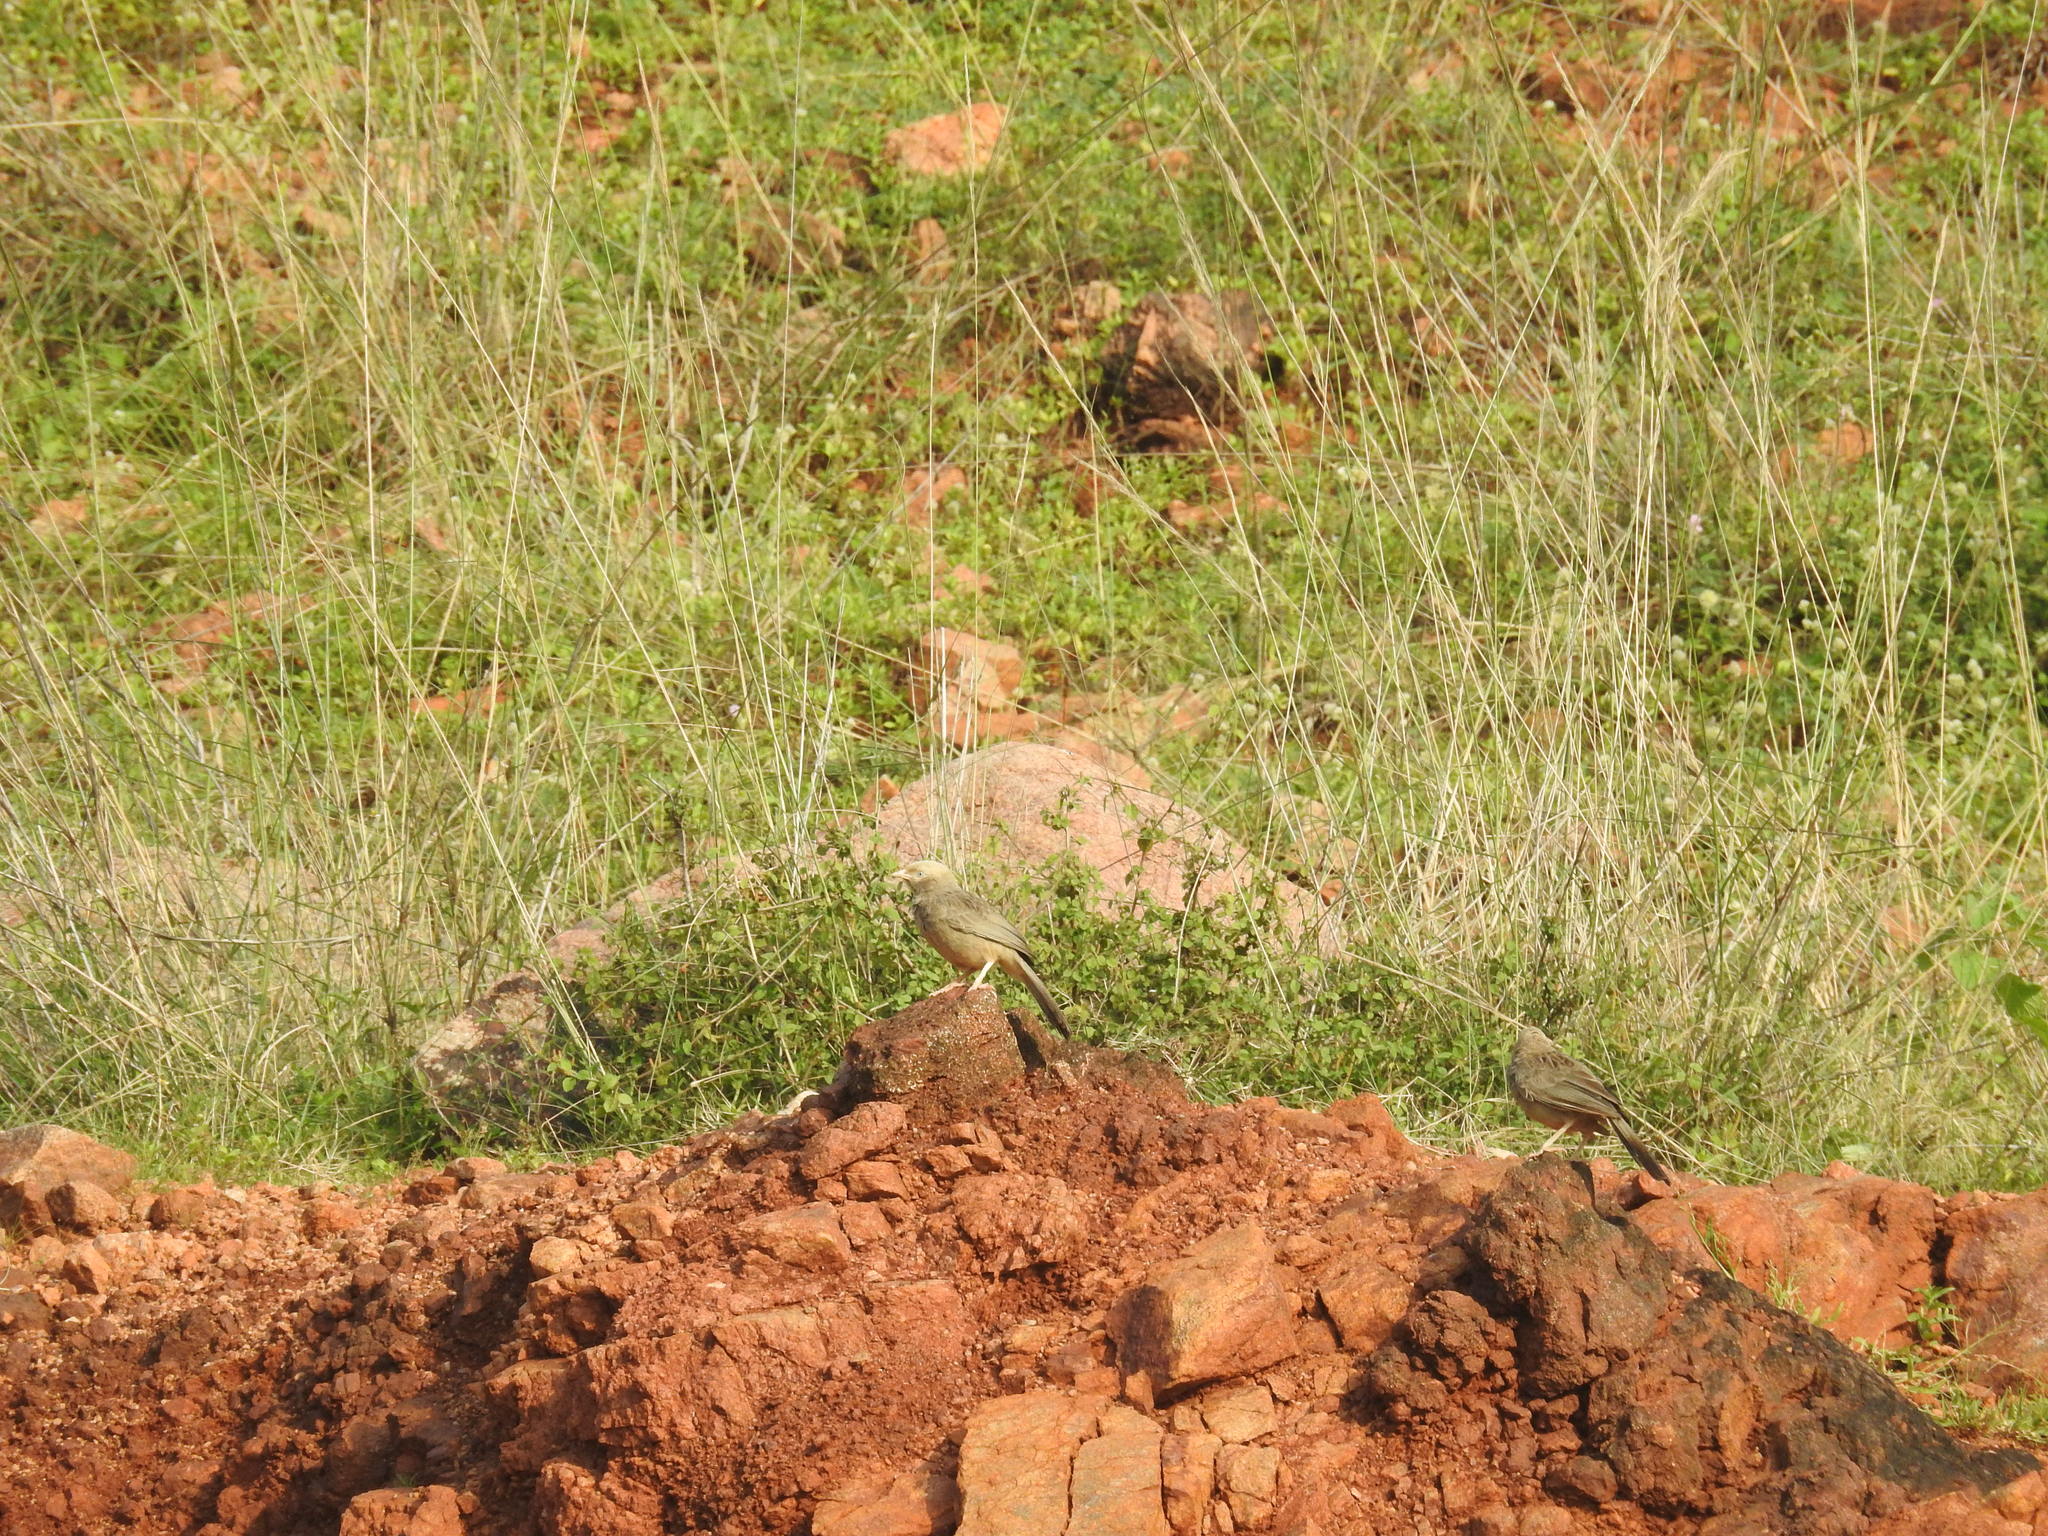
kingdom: Animalia
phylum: Chordata
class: Aves
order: Passeriformes
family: Leiothrichidae
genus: Turdoides
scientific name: Turdoides affinis
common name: Yellow-billed babbler
